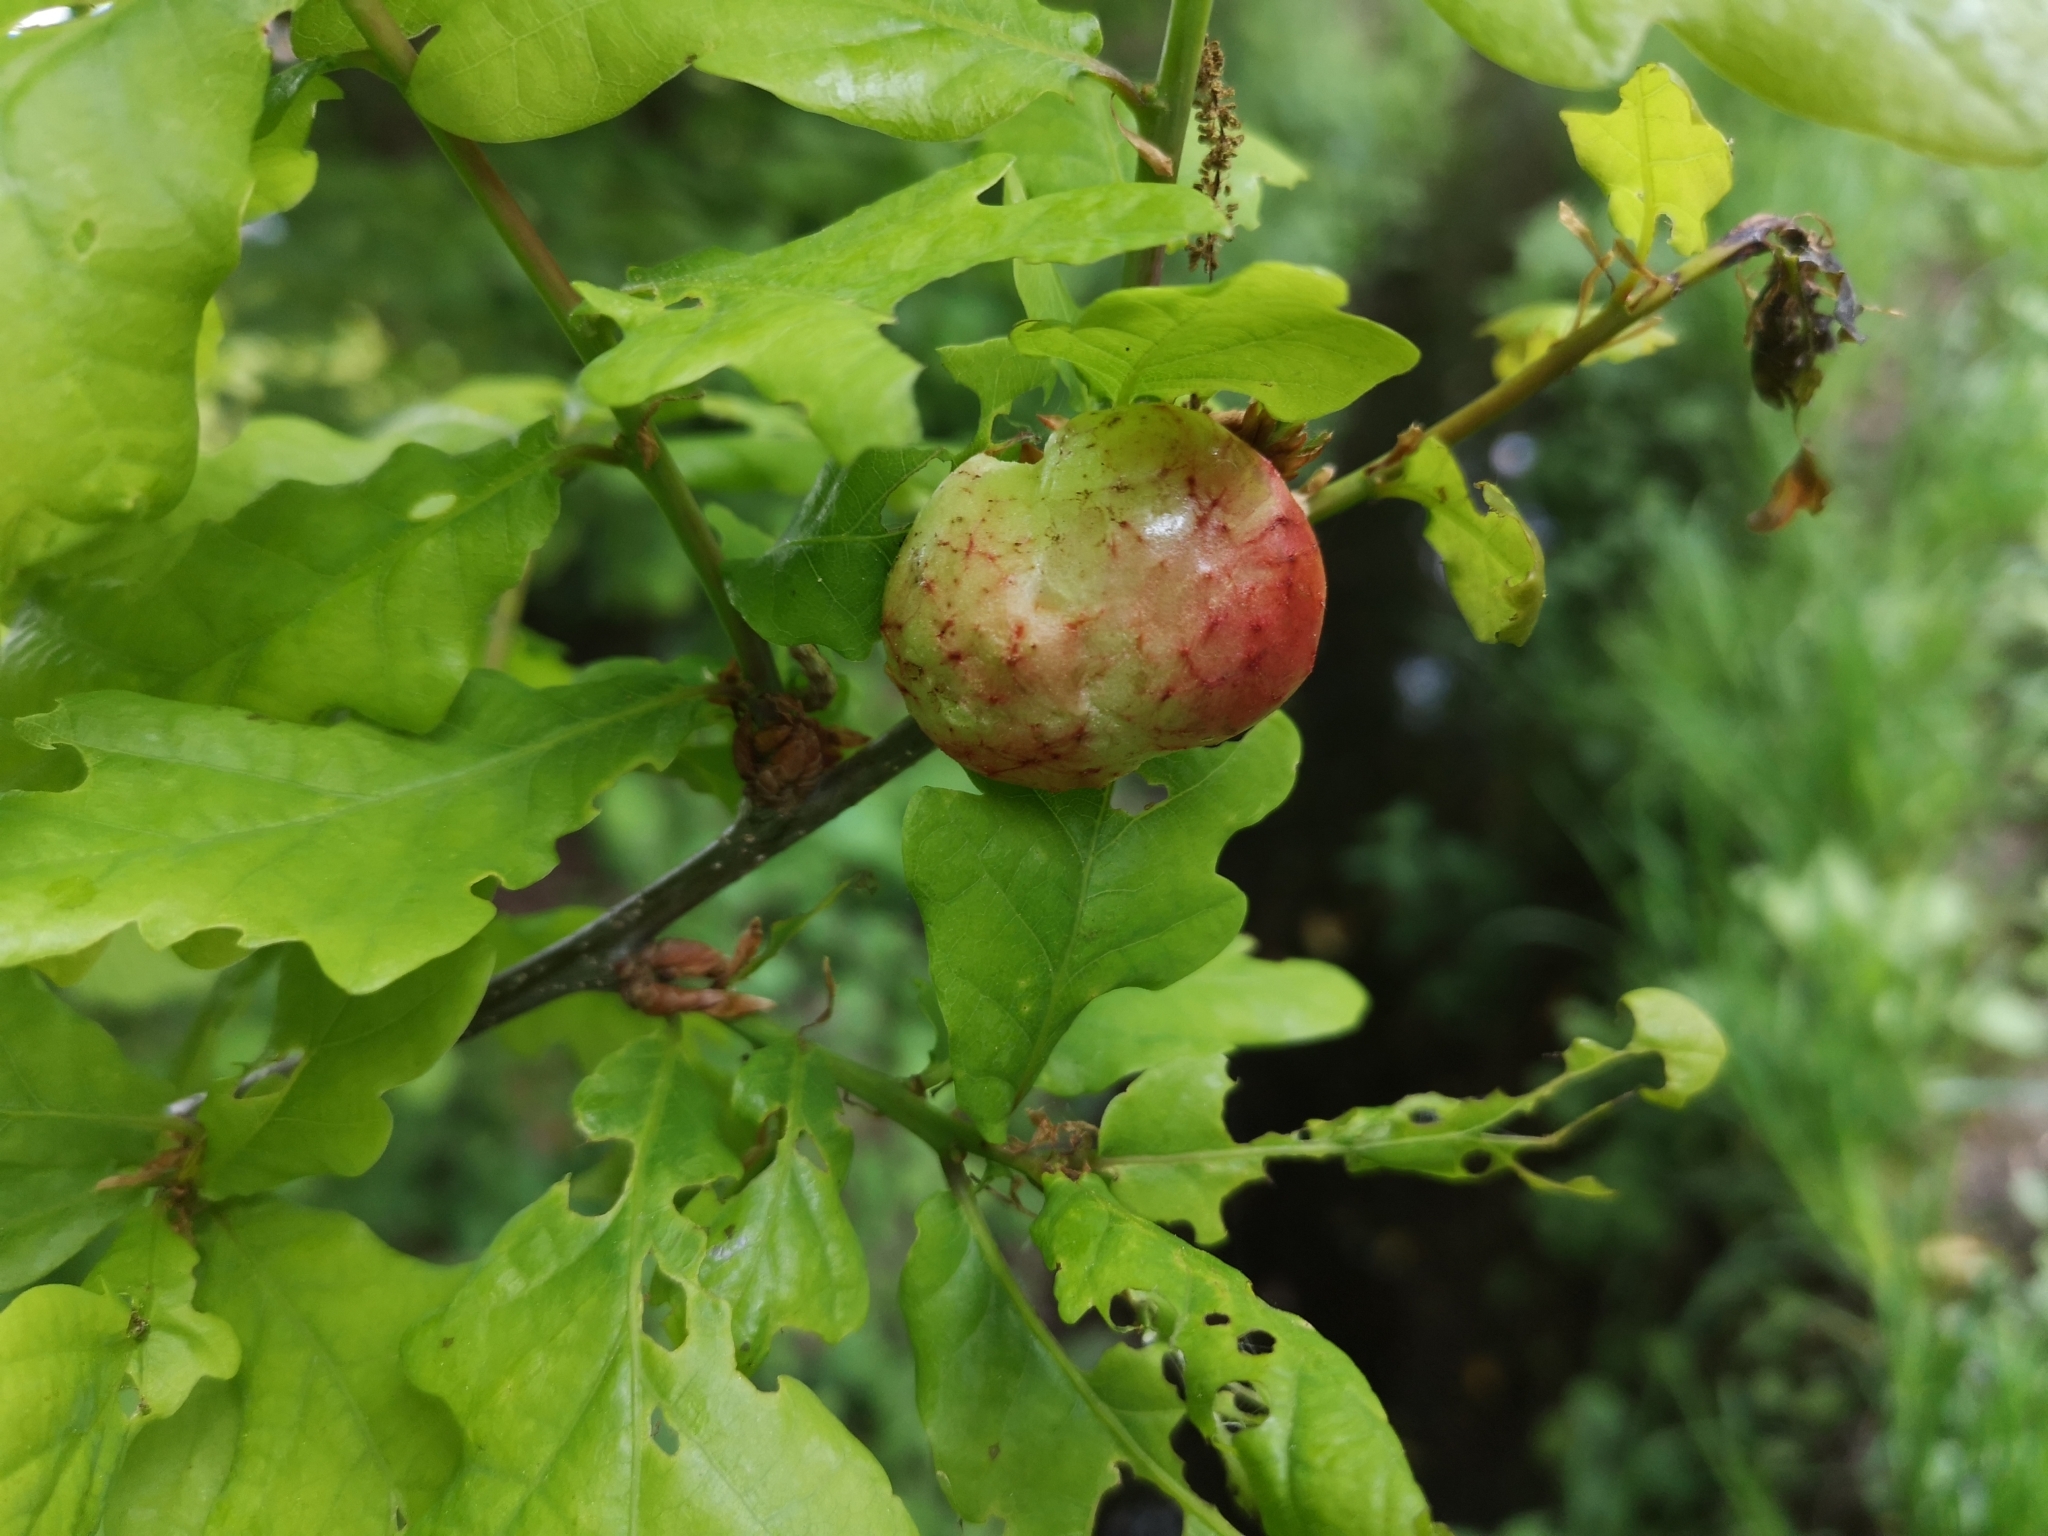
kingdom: Animalia
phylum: Arthropoda
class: Insecta
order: Hymenoptera
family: Cynipidae
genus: Biorhiza
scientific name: Biorhiza pallida
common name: Oak apple
